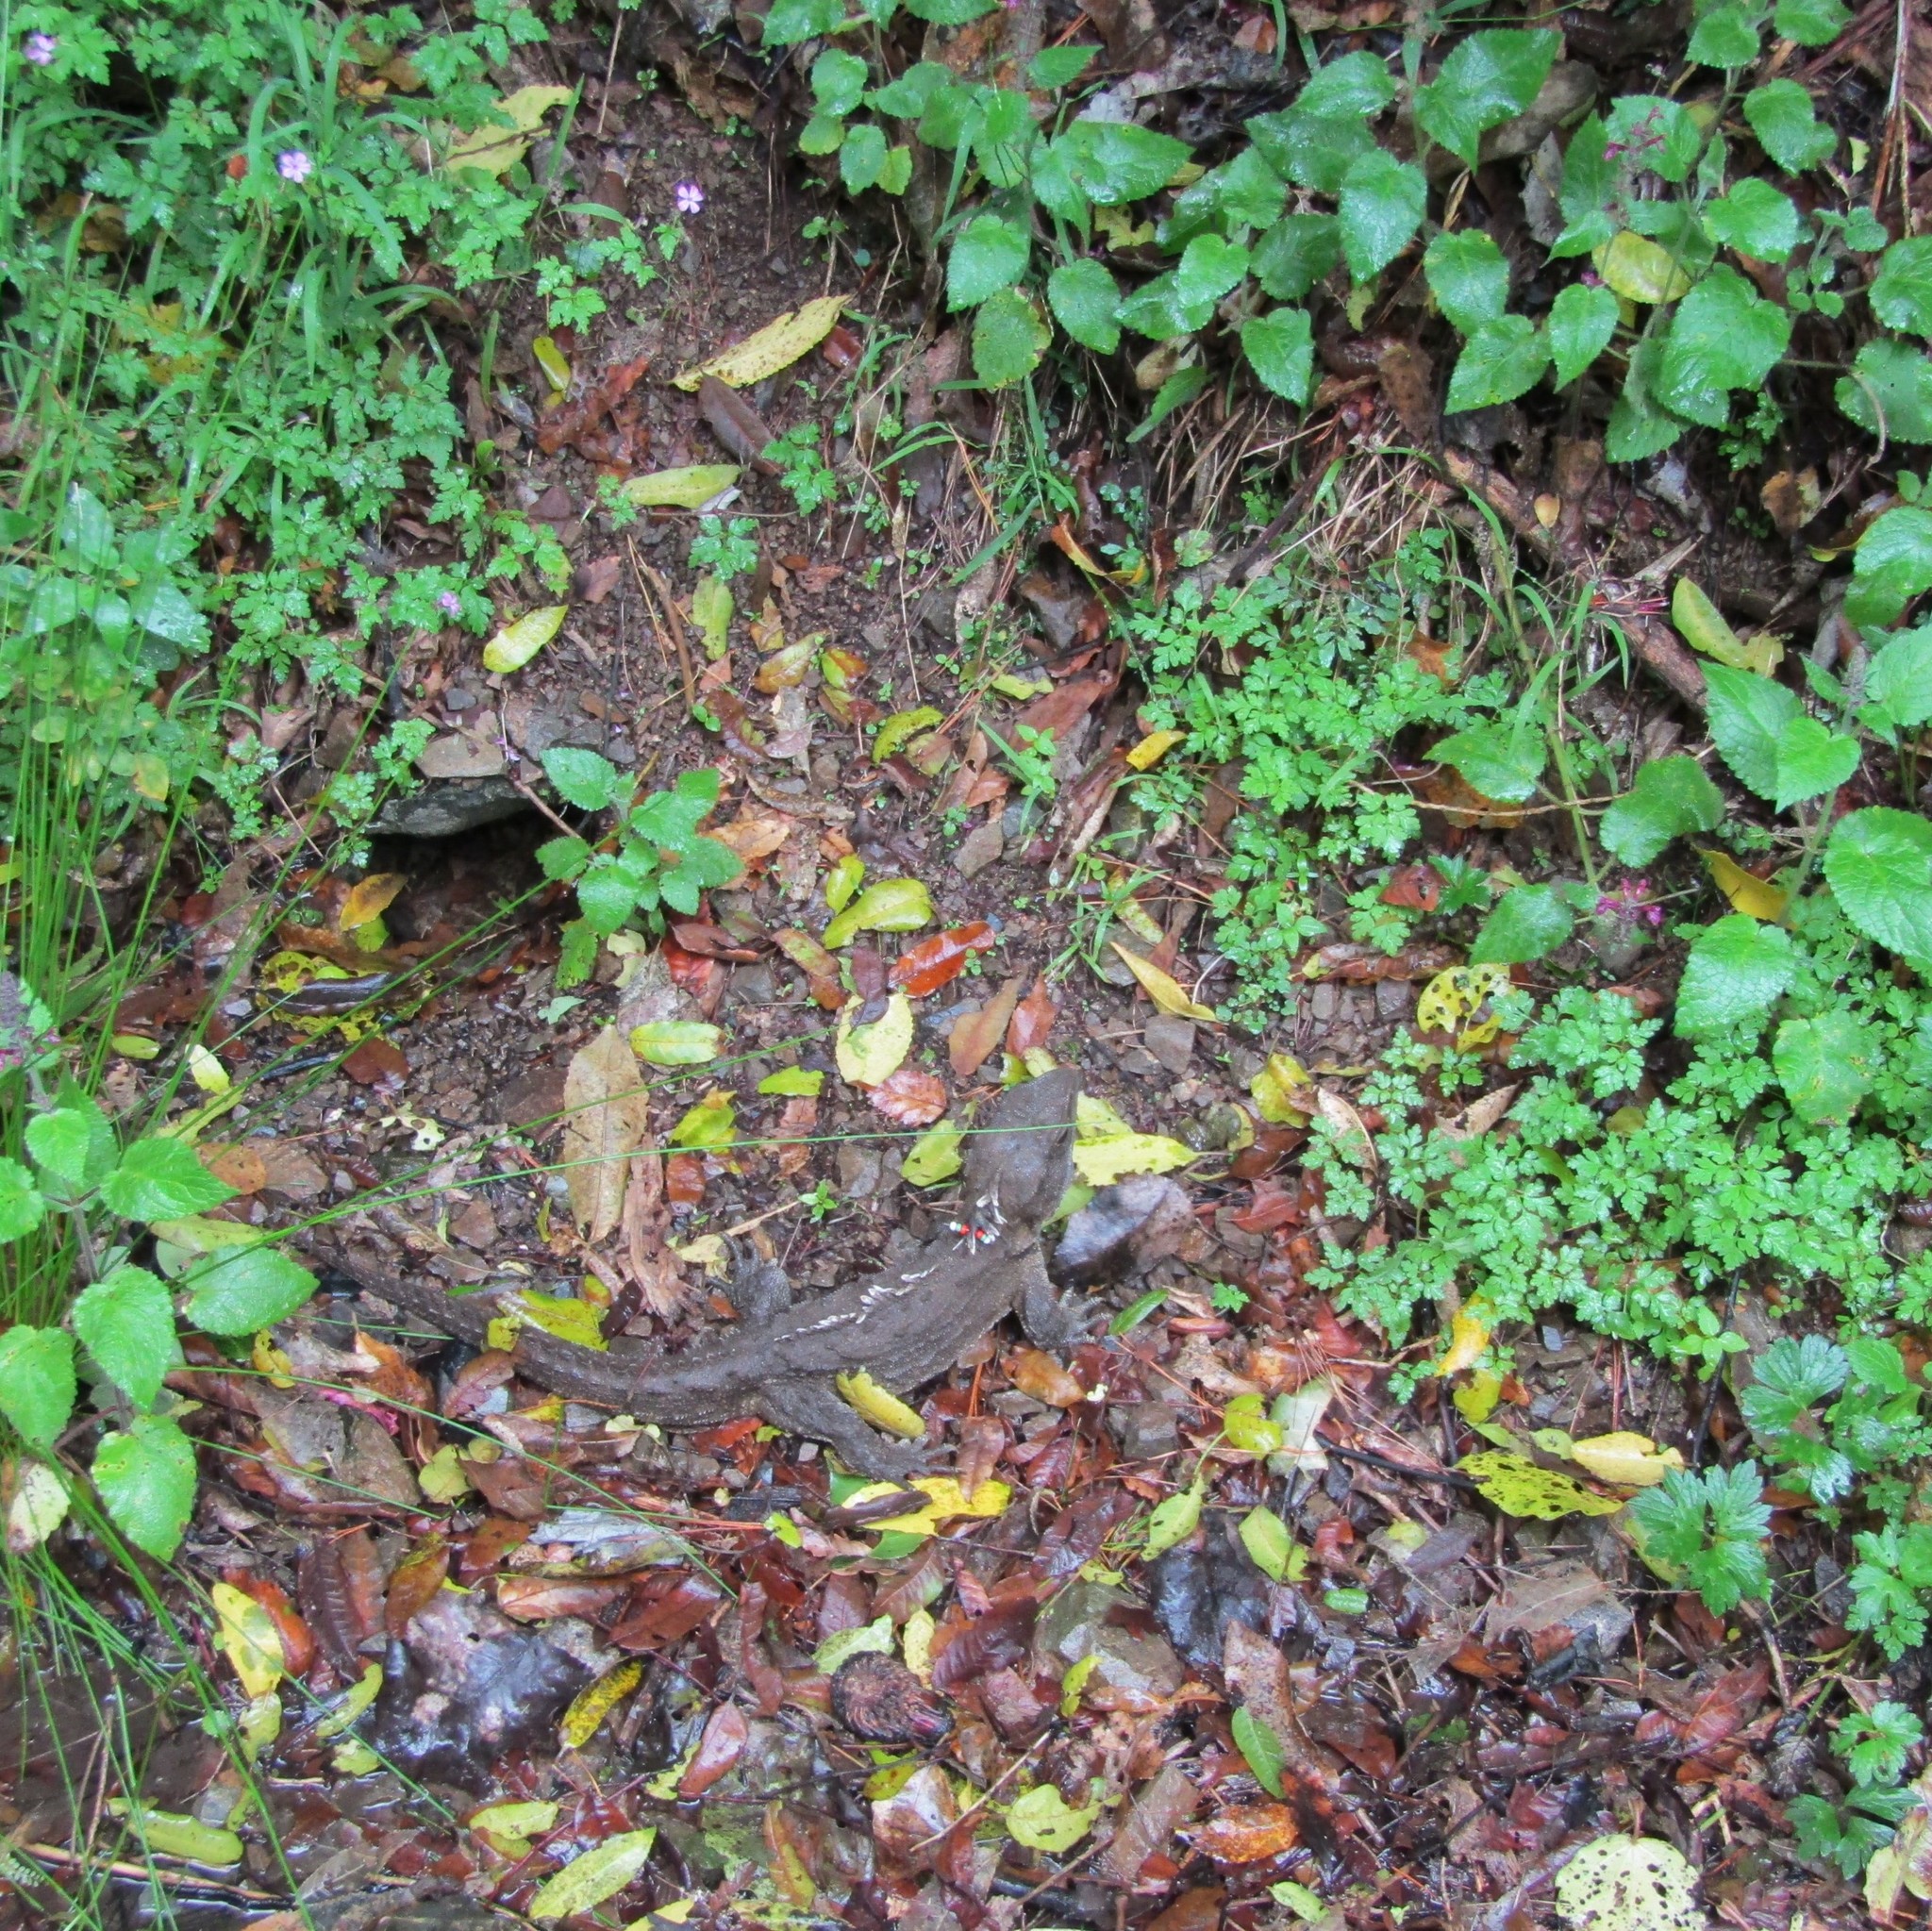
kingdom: Animalia
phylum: Chordata
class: Sphenodontia
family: Sphenodontidae
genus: Sphenodon
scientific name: Sphenodon punctatus
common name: Tuatara
